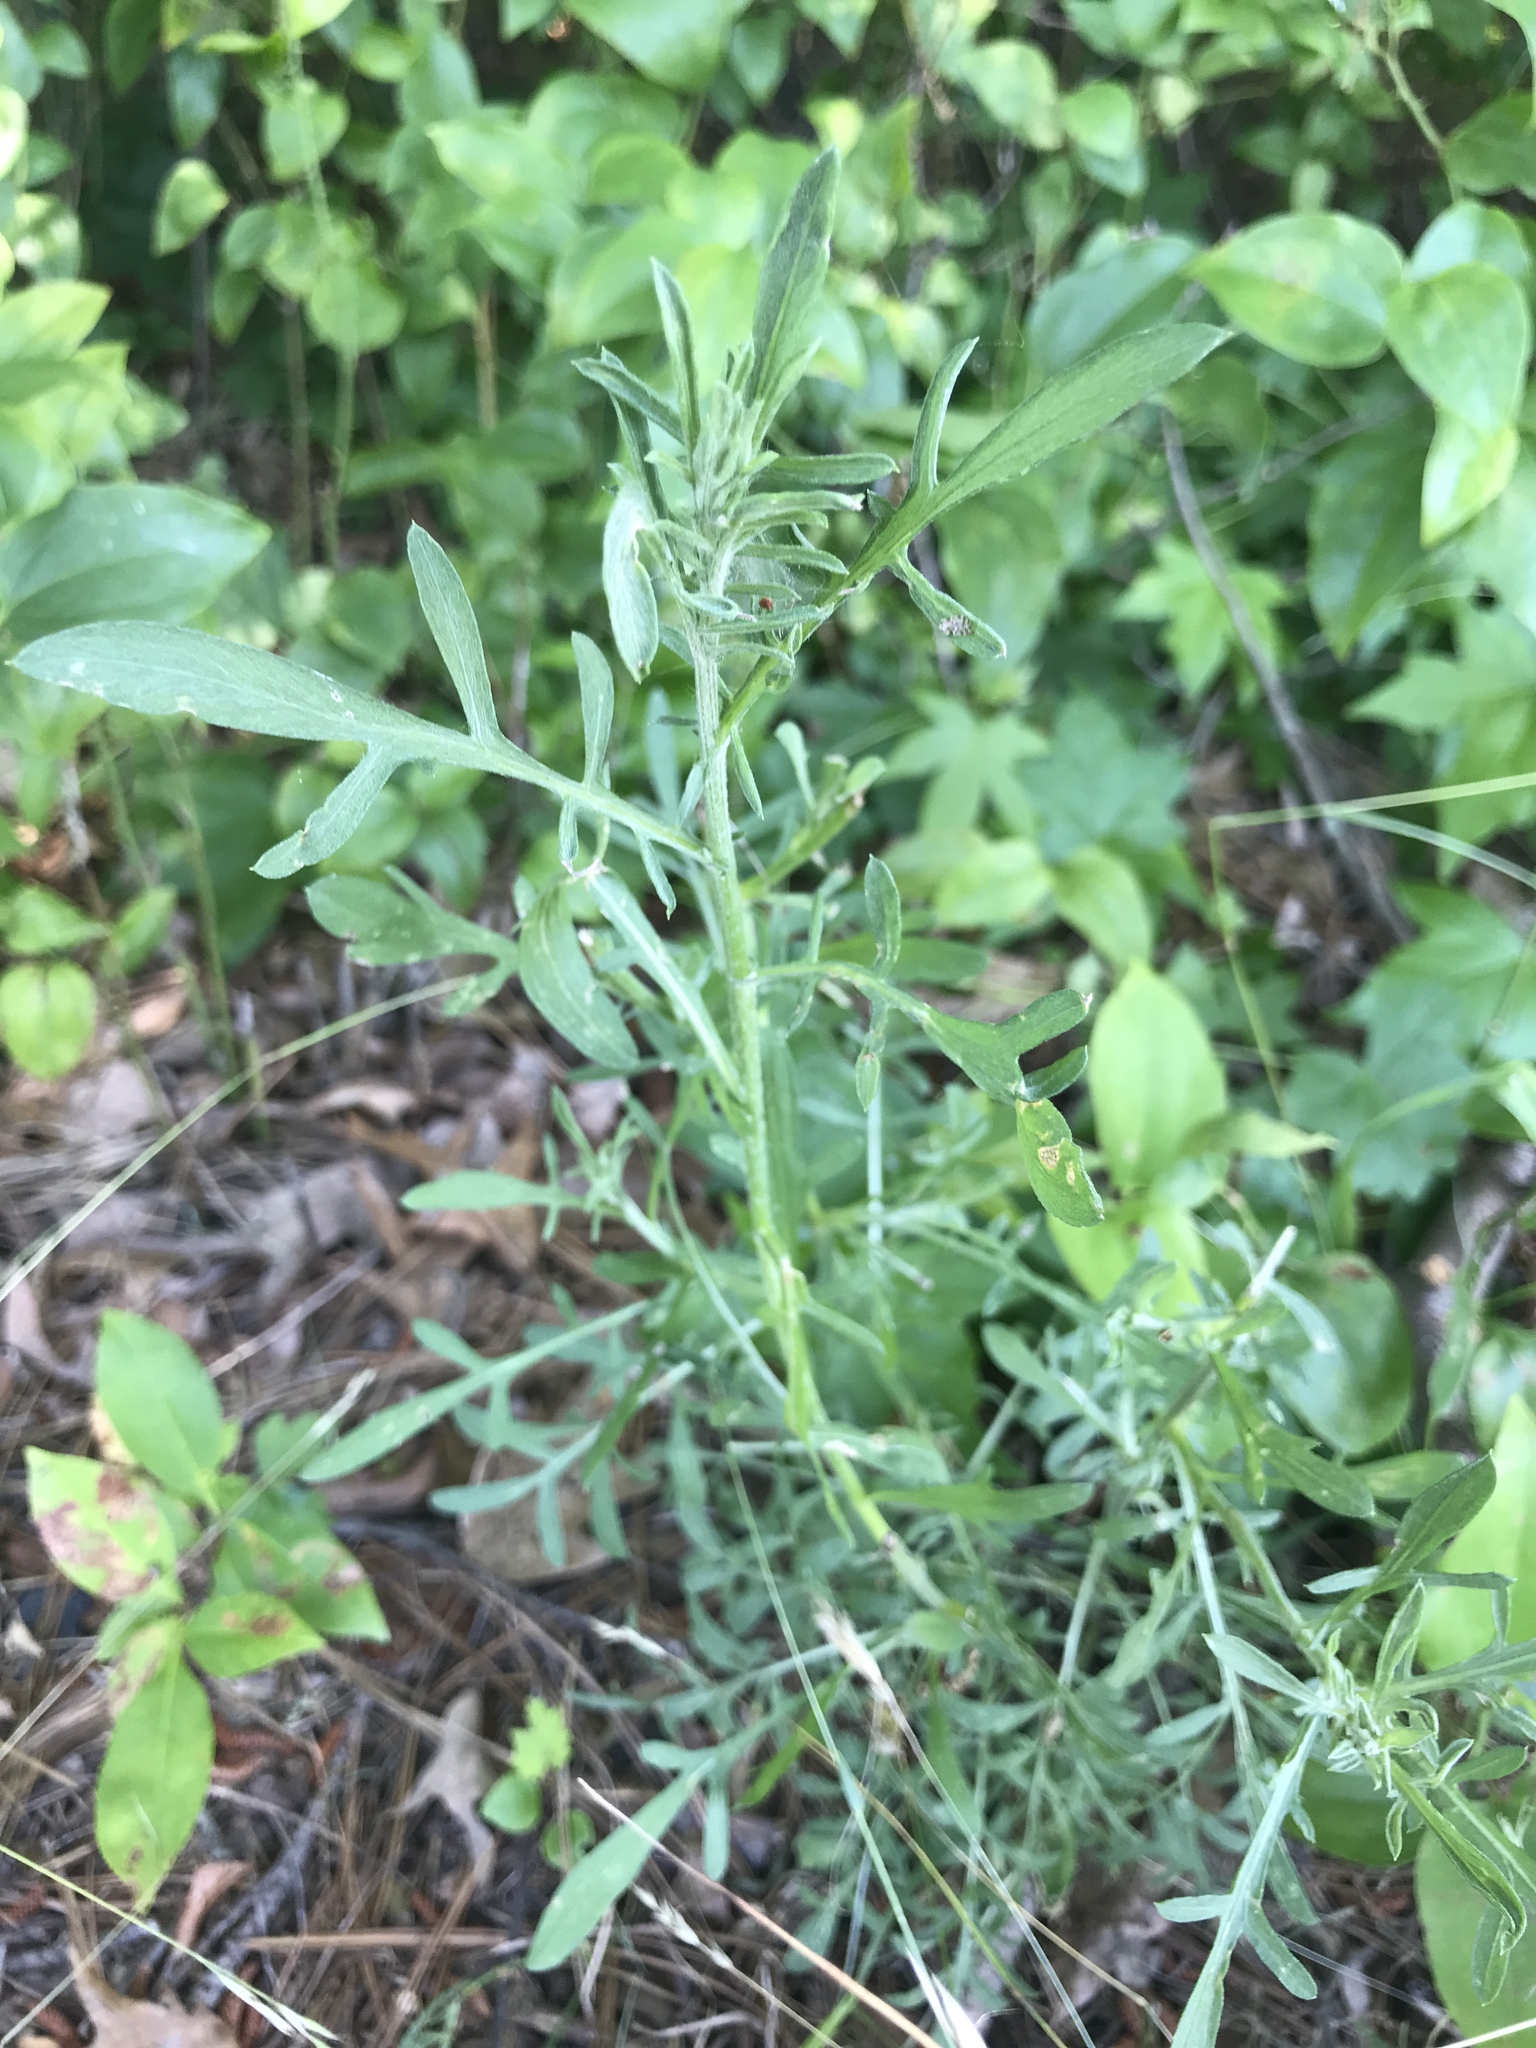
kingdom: Plantae
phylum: Tracheophyta
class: Magnoliopsida
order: Asterales
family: Asteraceae
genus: Centaurea
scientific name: Centaurea stoebe
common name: Spotted knapweed
